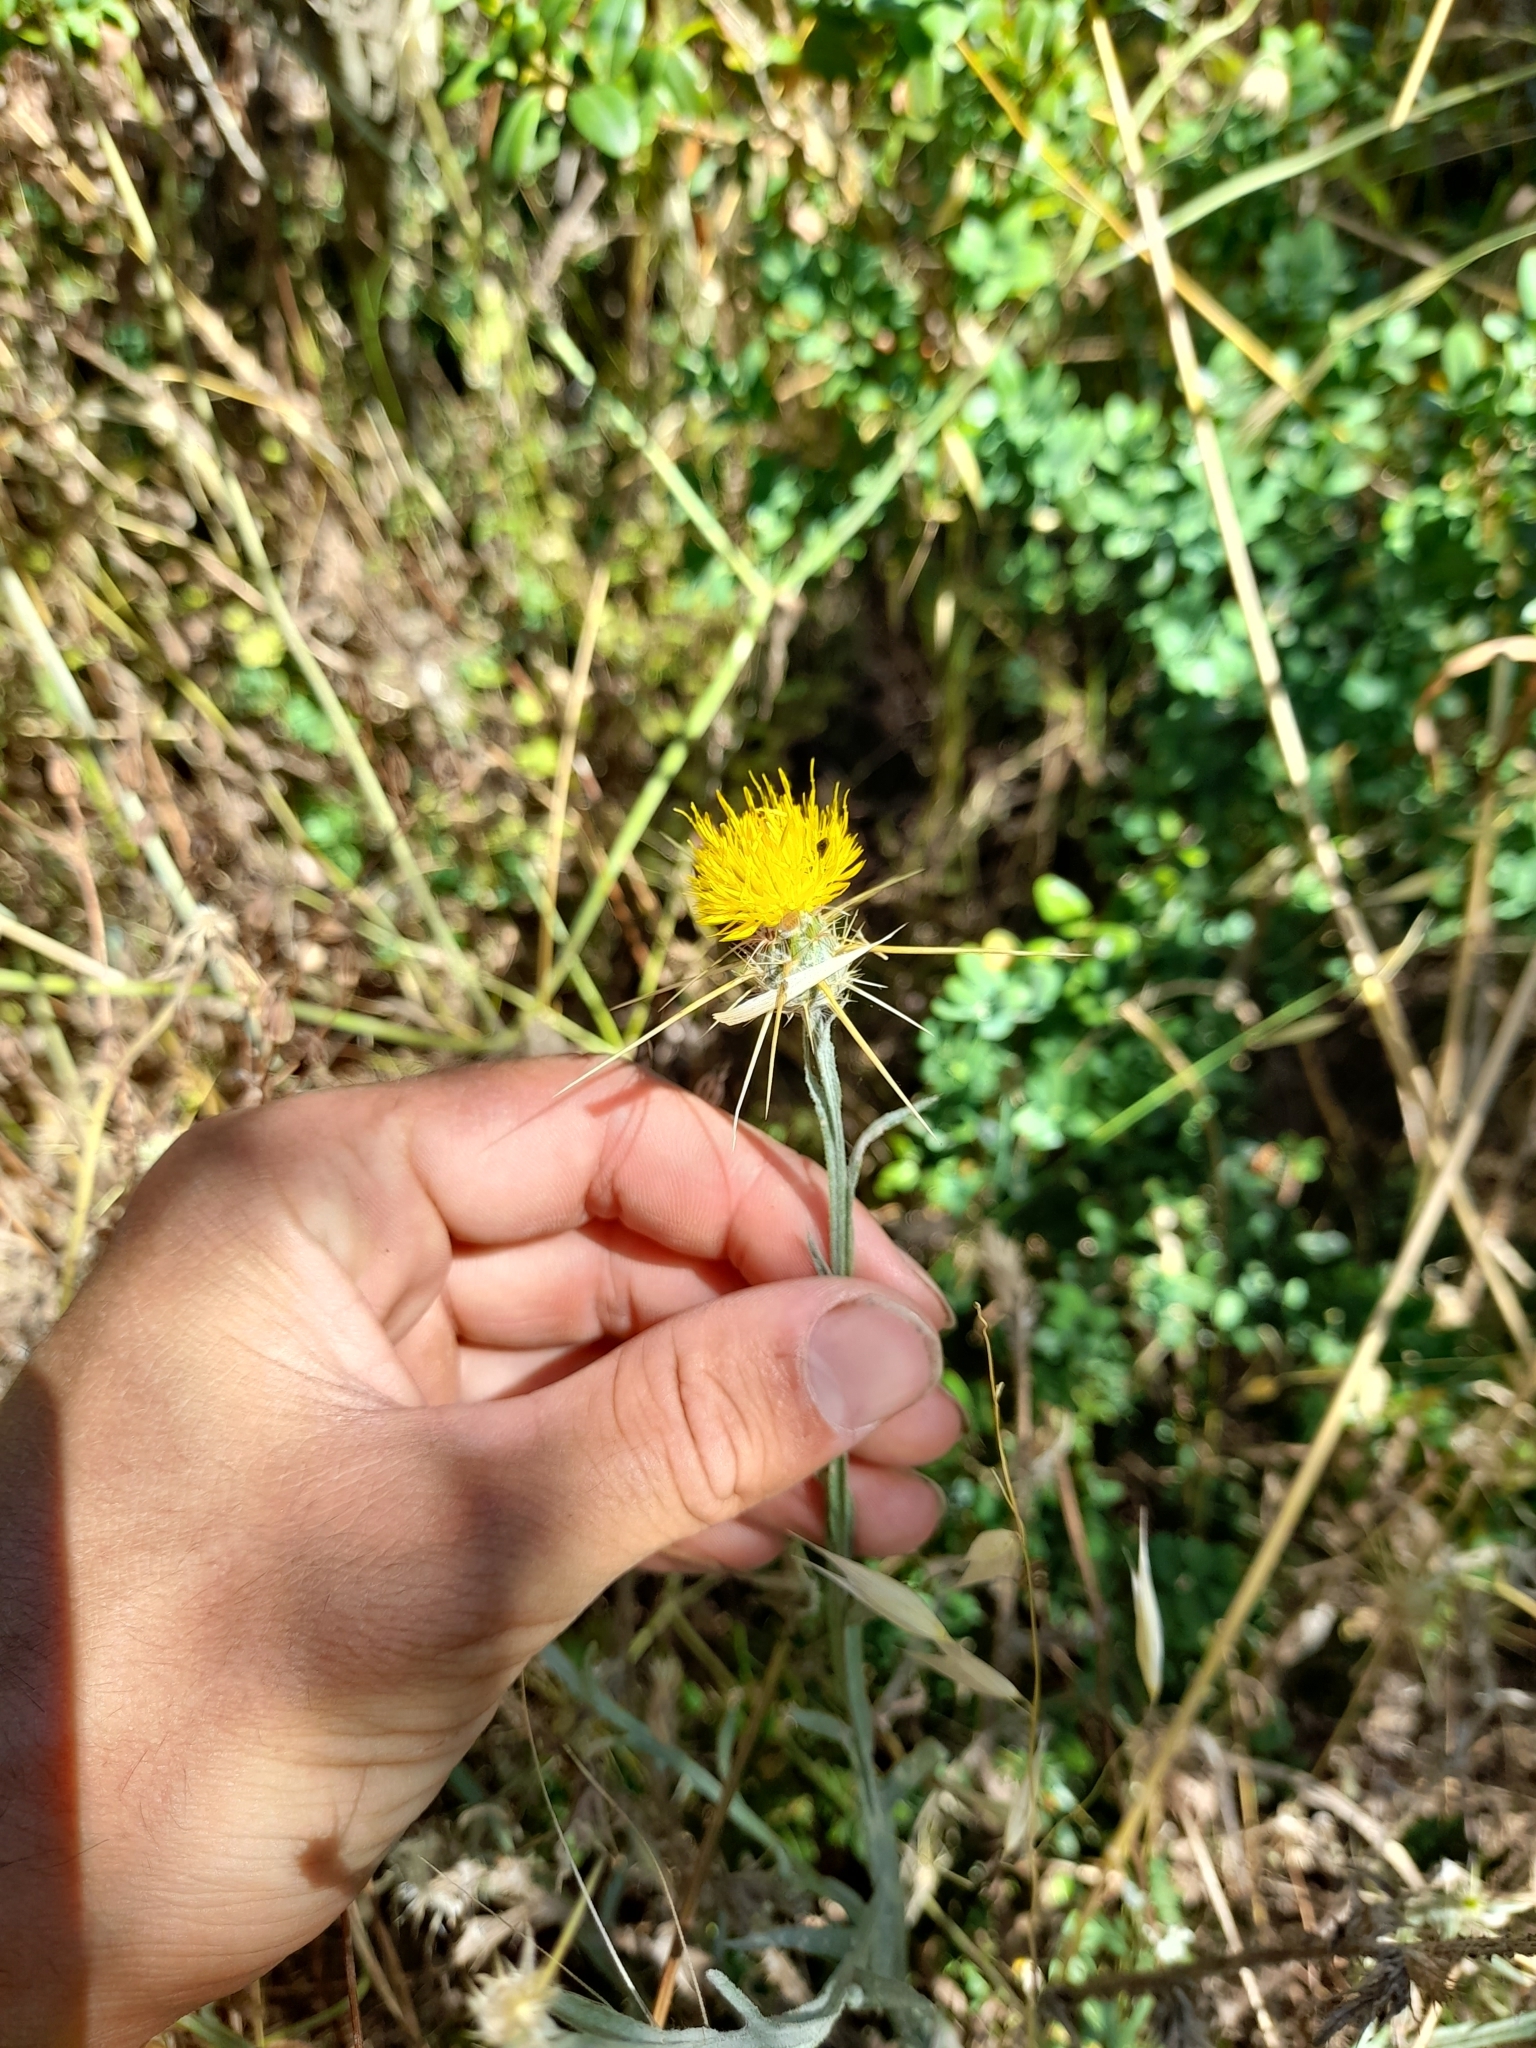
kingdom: Plantae
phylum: Tracheophyta
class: Magnoliopsida
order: Asterales
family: Asteraceae
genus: Centaurea
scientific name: Centaurea solstitialis
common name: Yellow star-thistle
